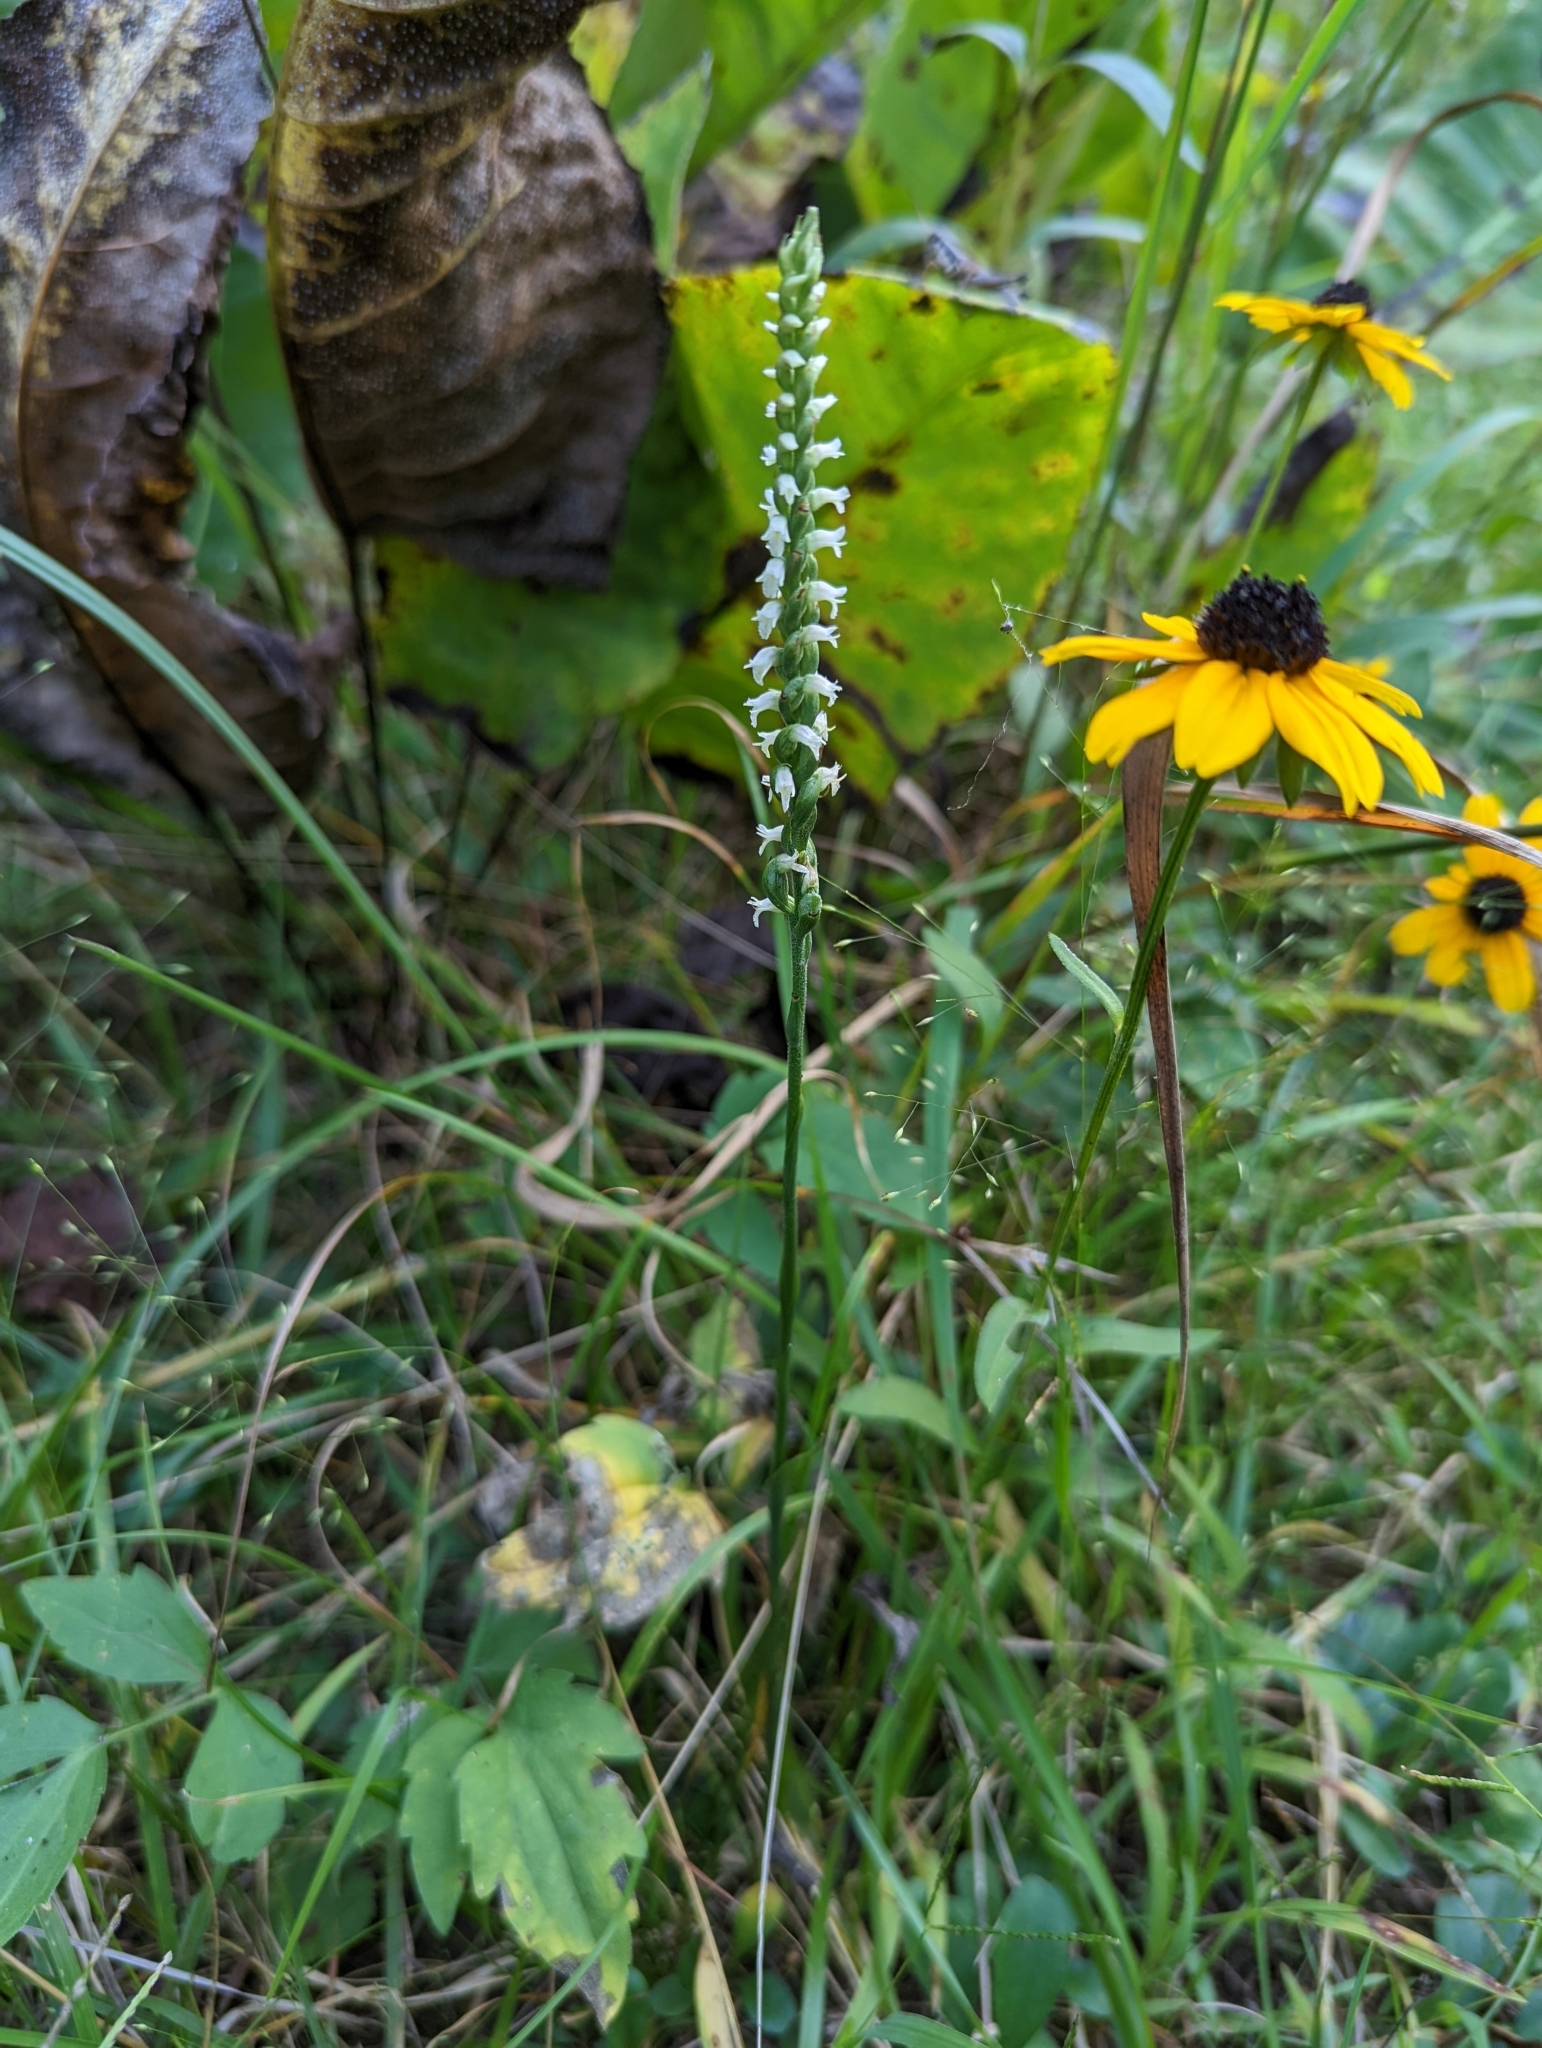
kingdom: Plantae
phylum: Tracheophyta
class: Liliopsida
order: Asparagales
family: Orchidaceae
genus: Spiranthes
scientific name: Spiranthes ovalis
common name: October ladies'-tresses
